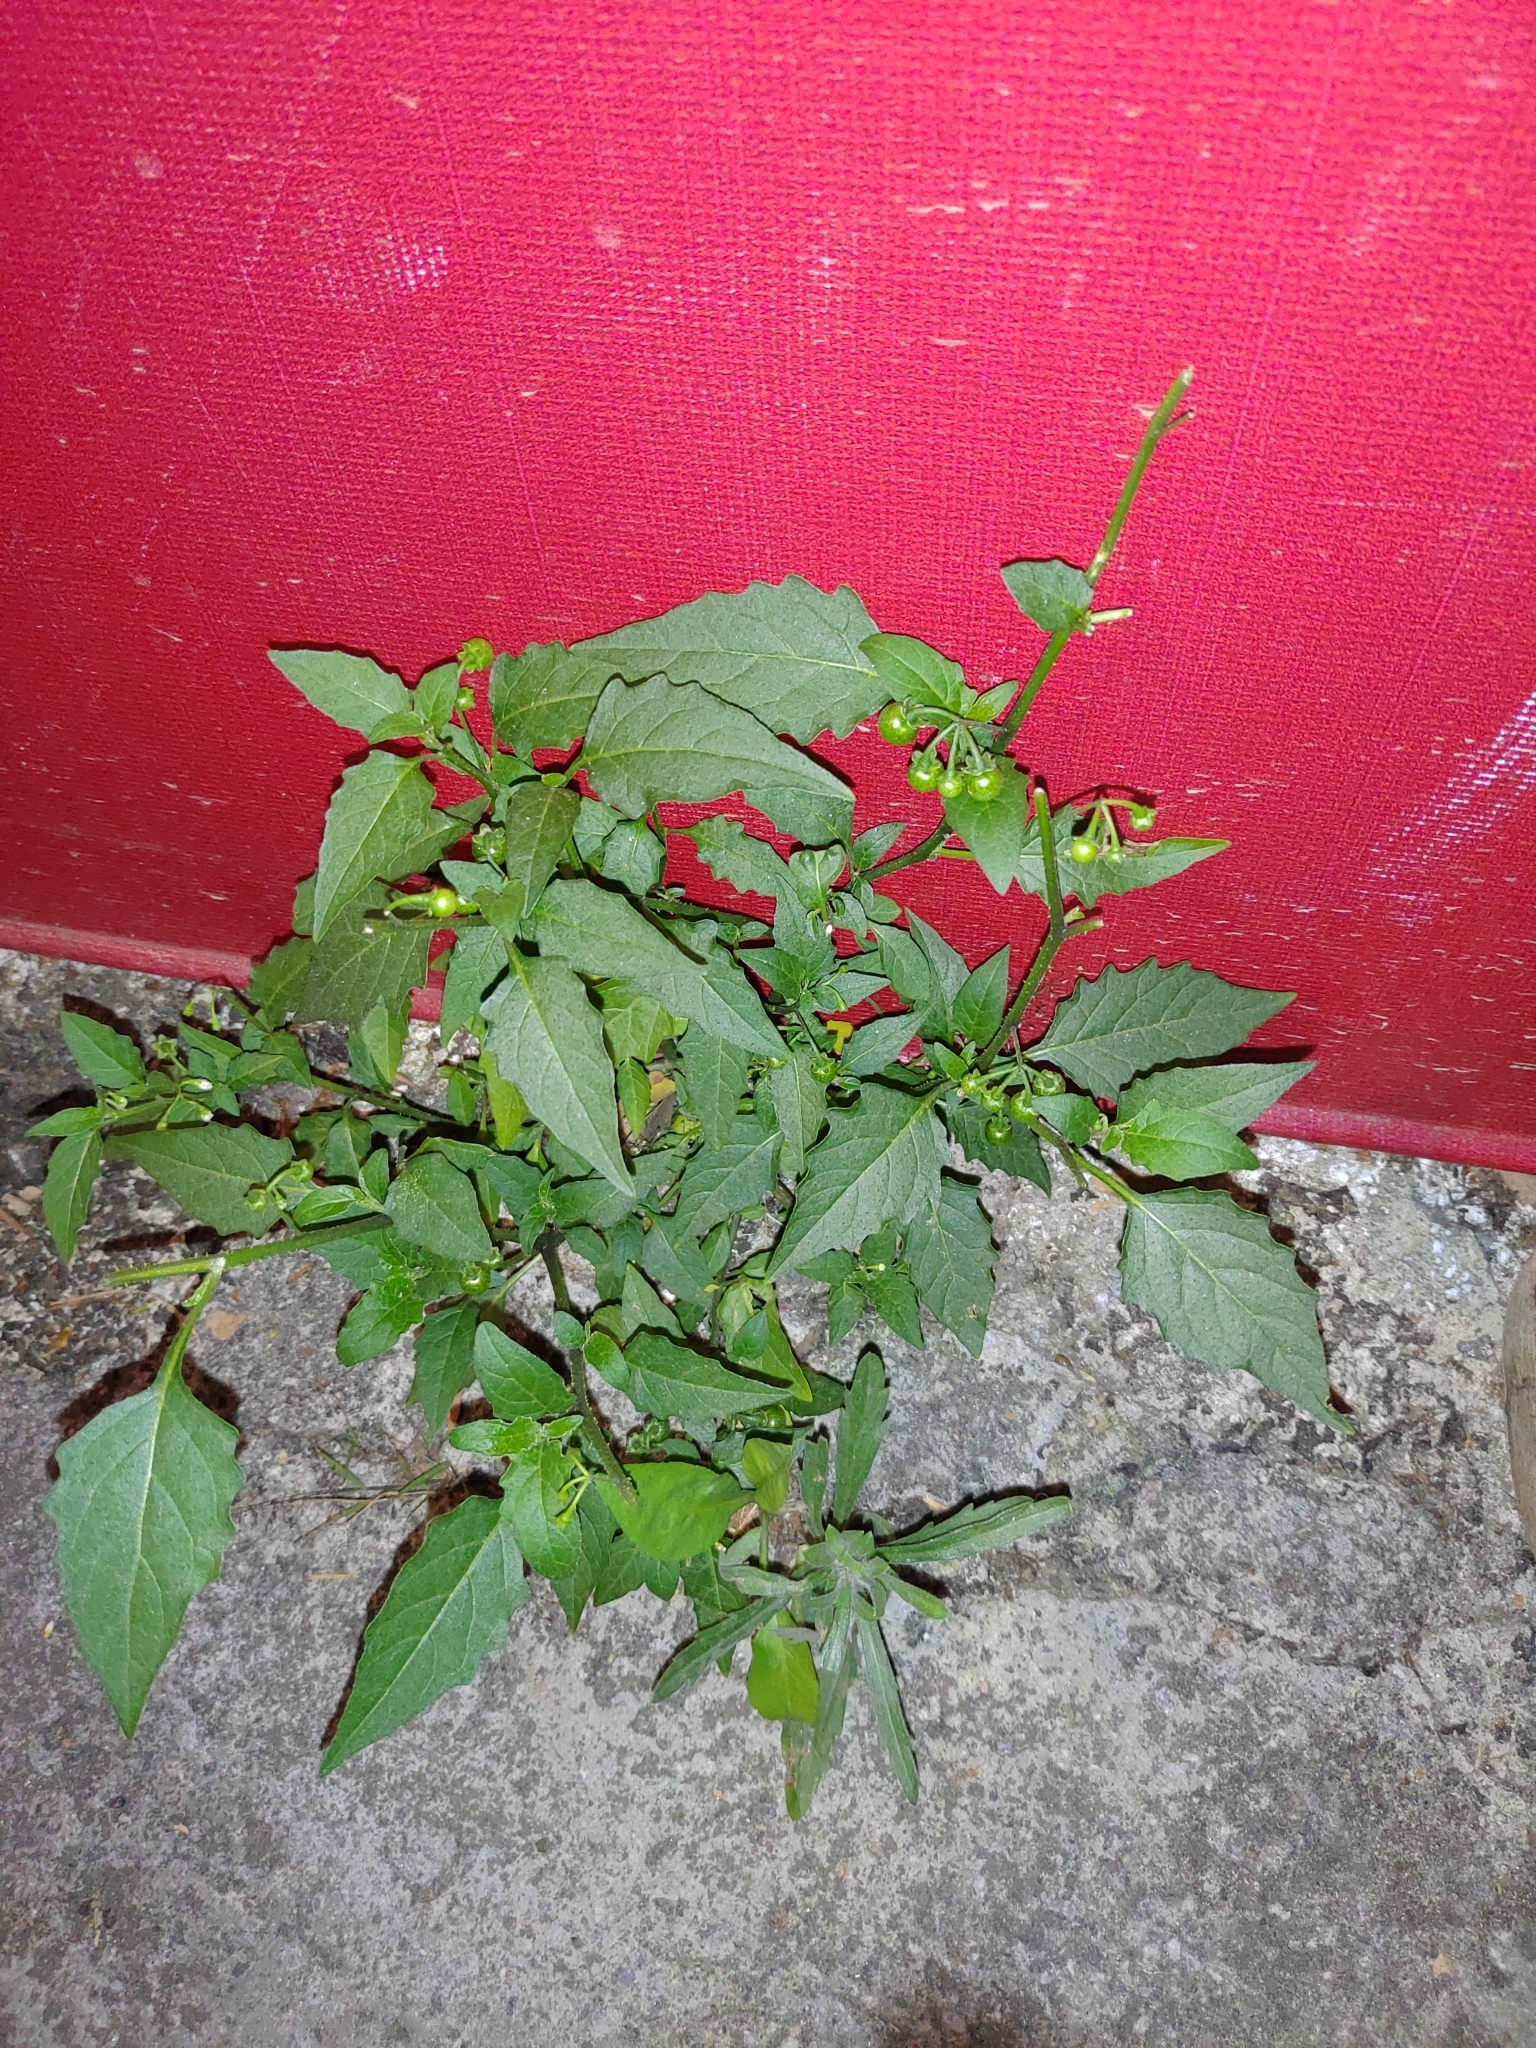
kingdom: Plantae
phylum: Tracheophyta
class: Magnoliopsida
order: Solanales
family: Solanaceae
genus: Solanum
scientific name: Solanum americanum
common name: American black nightshade
